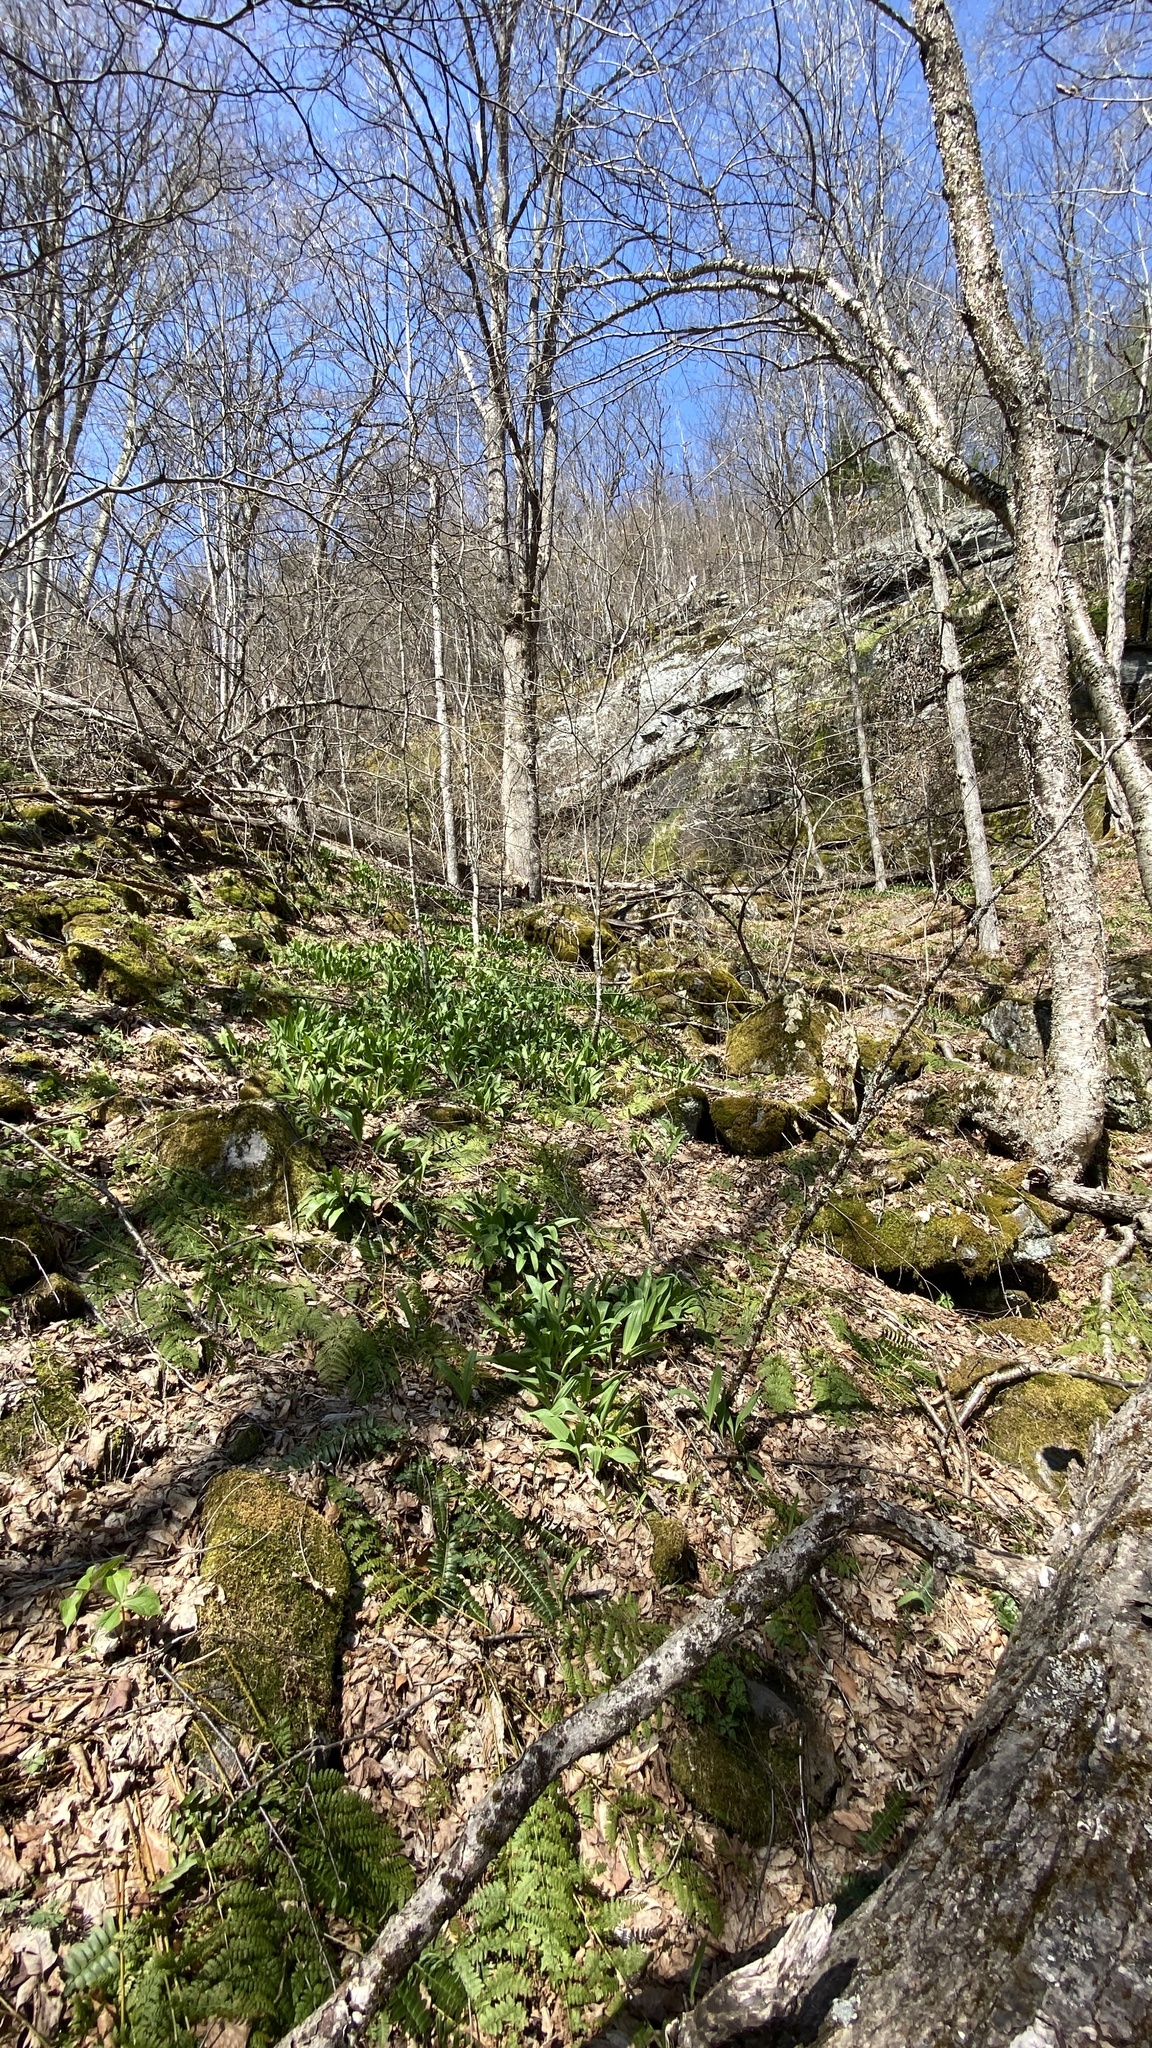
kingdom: Plantae
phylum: Tracheophyta
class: Liliopsida
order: Asparagales
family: Amaryllidaceae
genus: Allium
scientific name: Allium tricoccum
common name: Ramp
